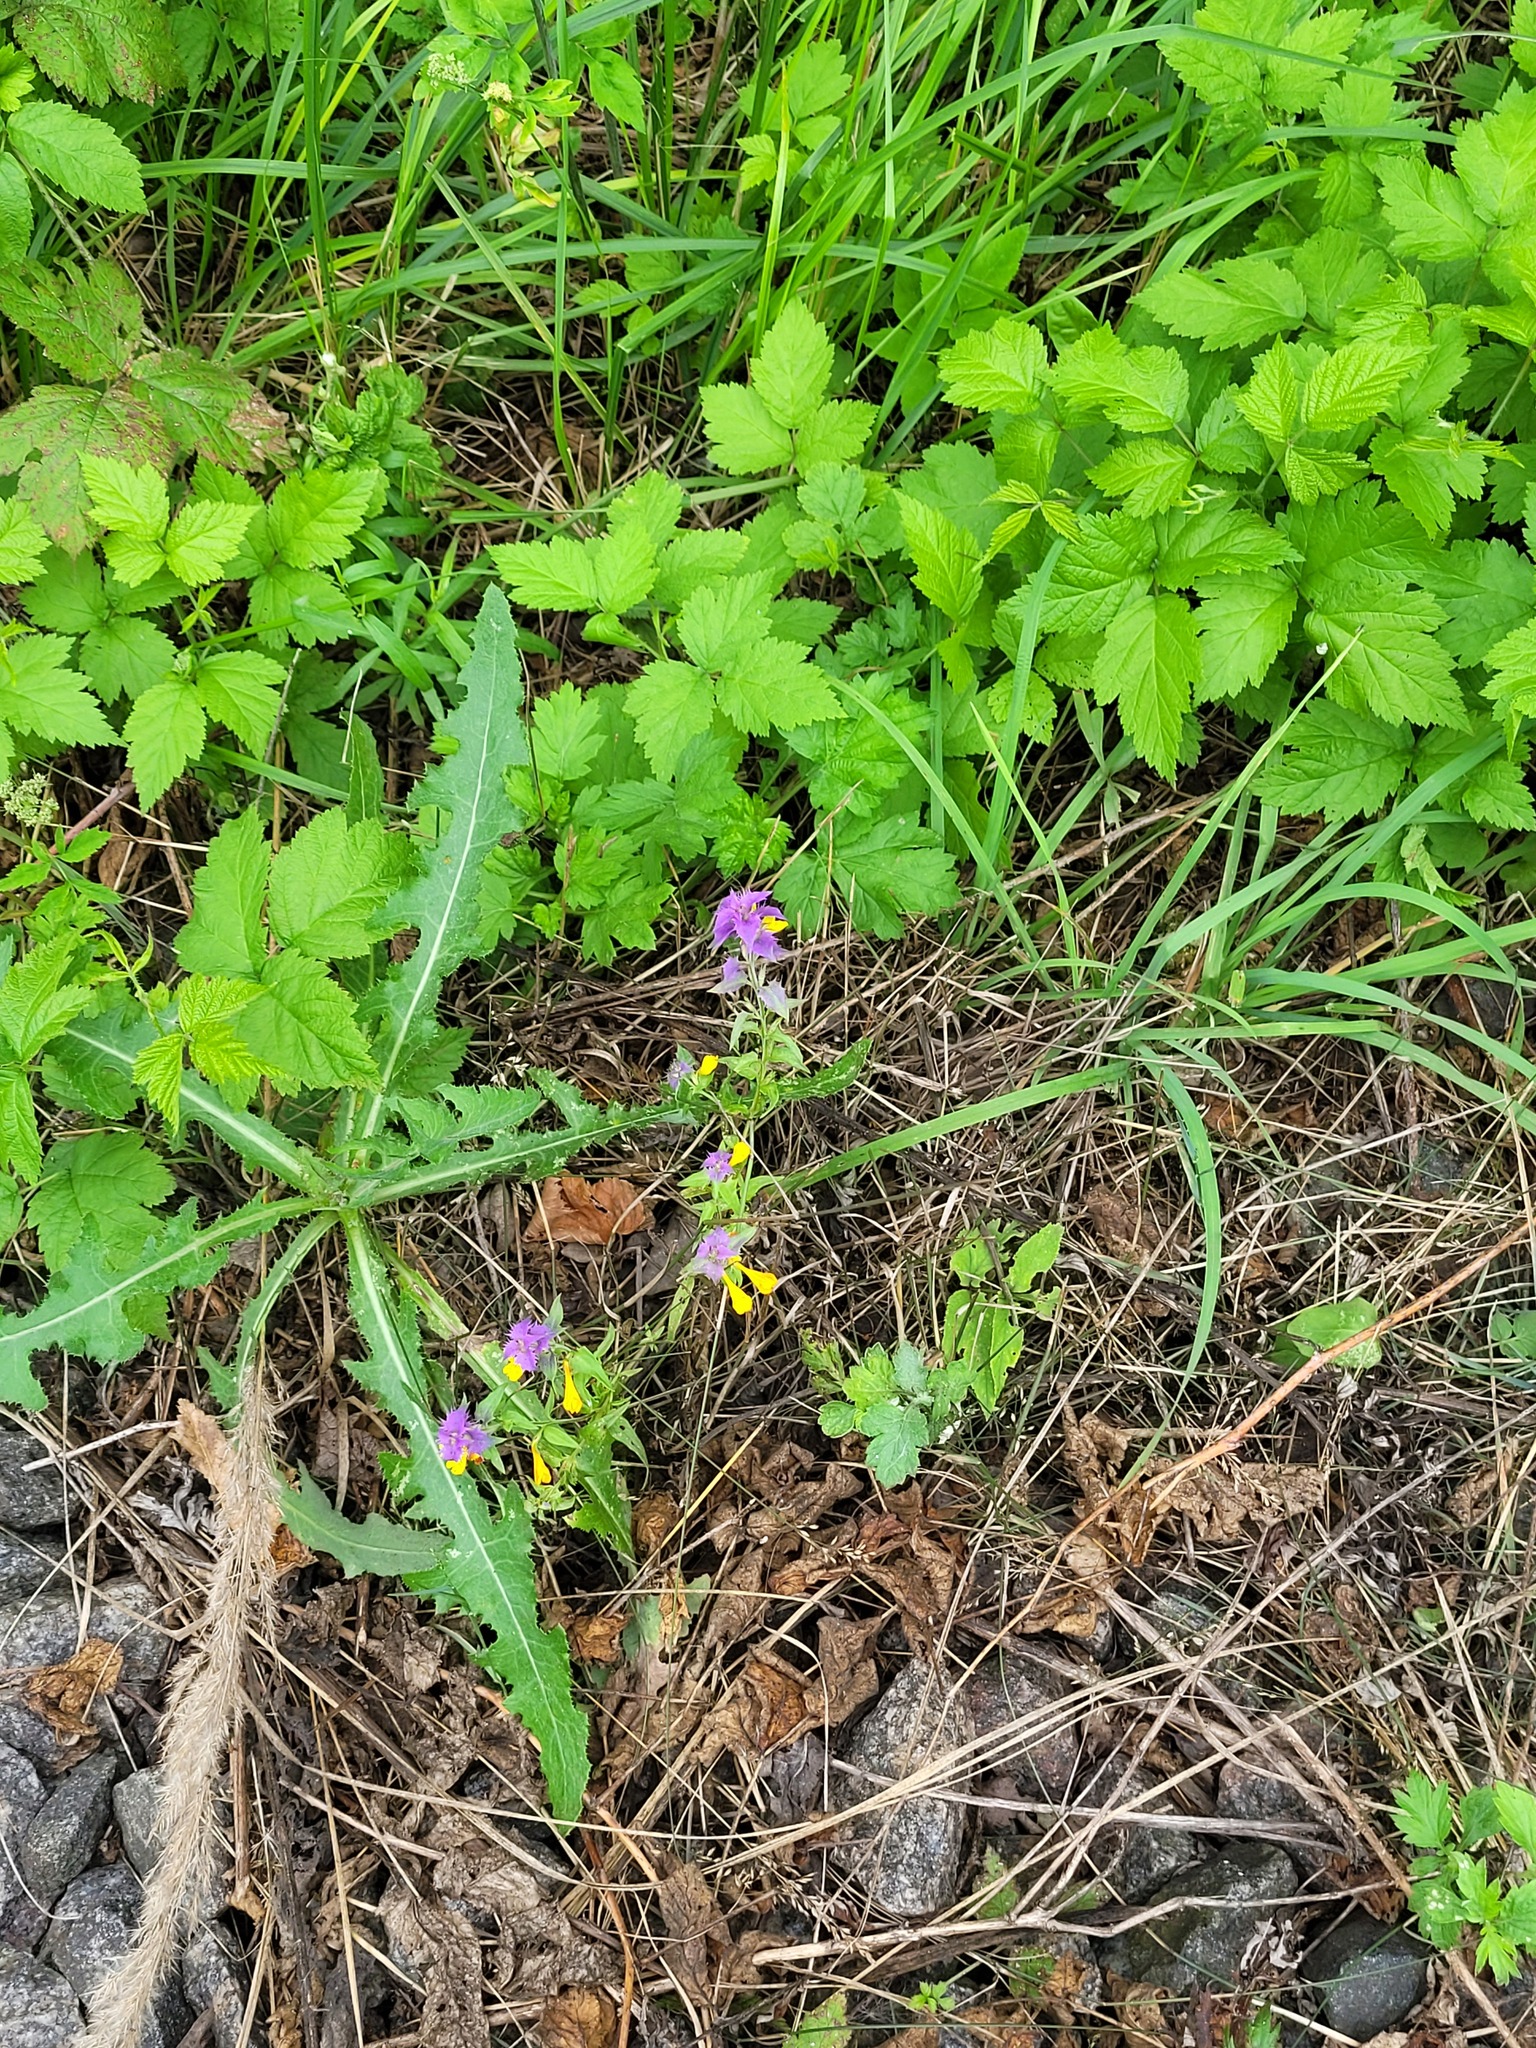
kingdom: Plantae
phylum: Tracheophyta
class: Magnoliopsida
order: Lamiales
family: Orobanchaceae
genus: Melampyrum
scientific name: Melampyrum nemorosum
